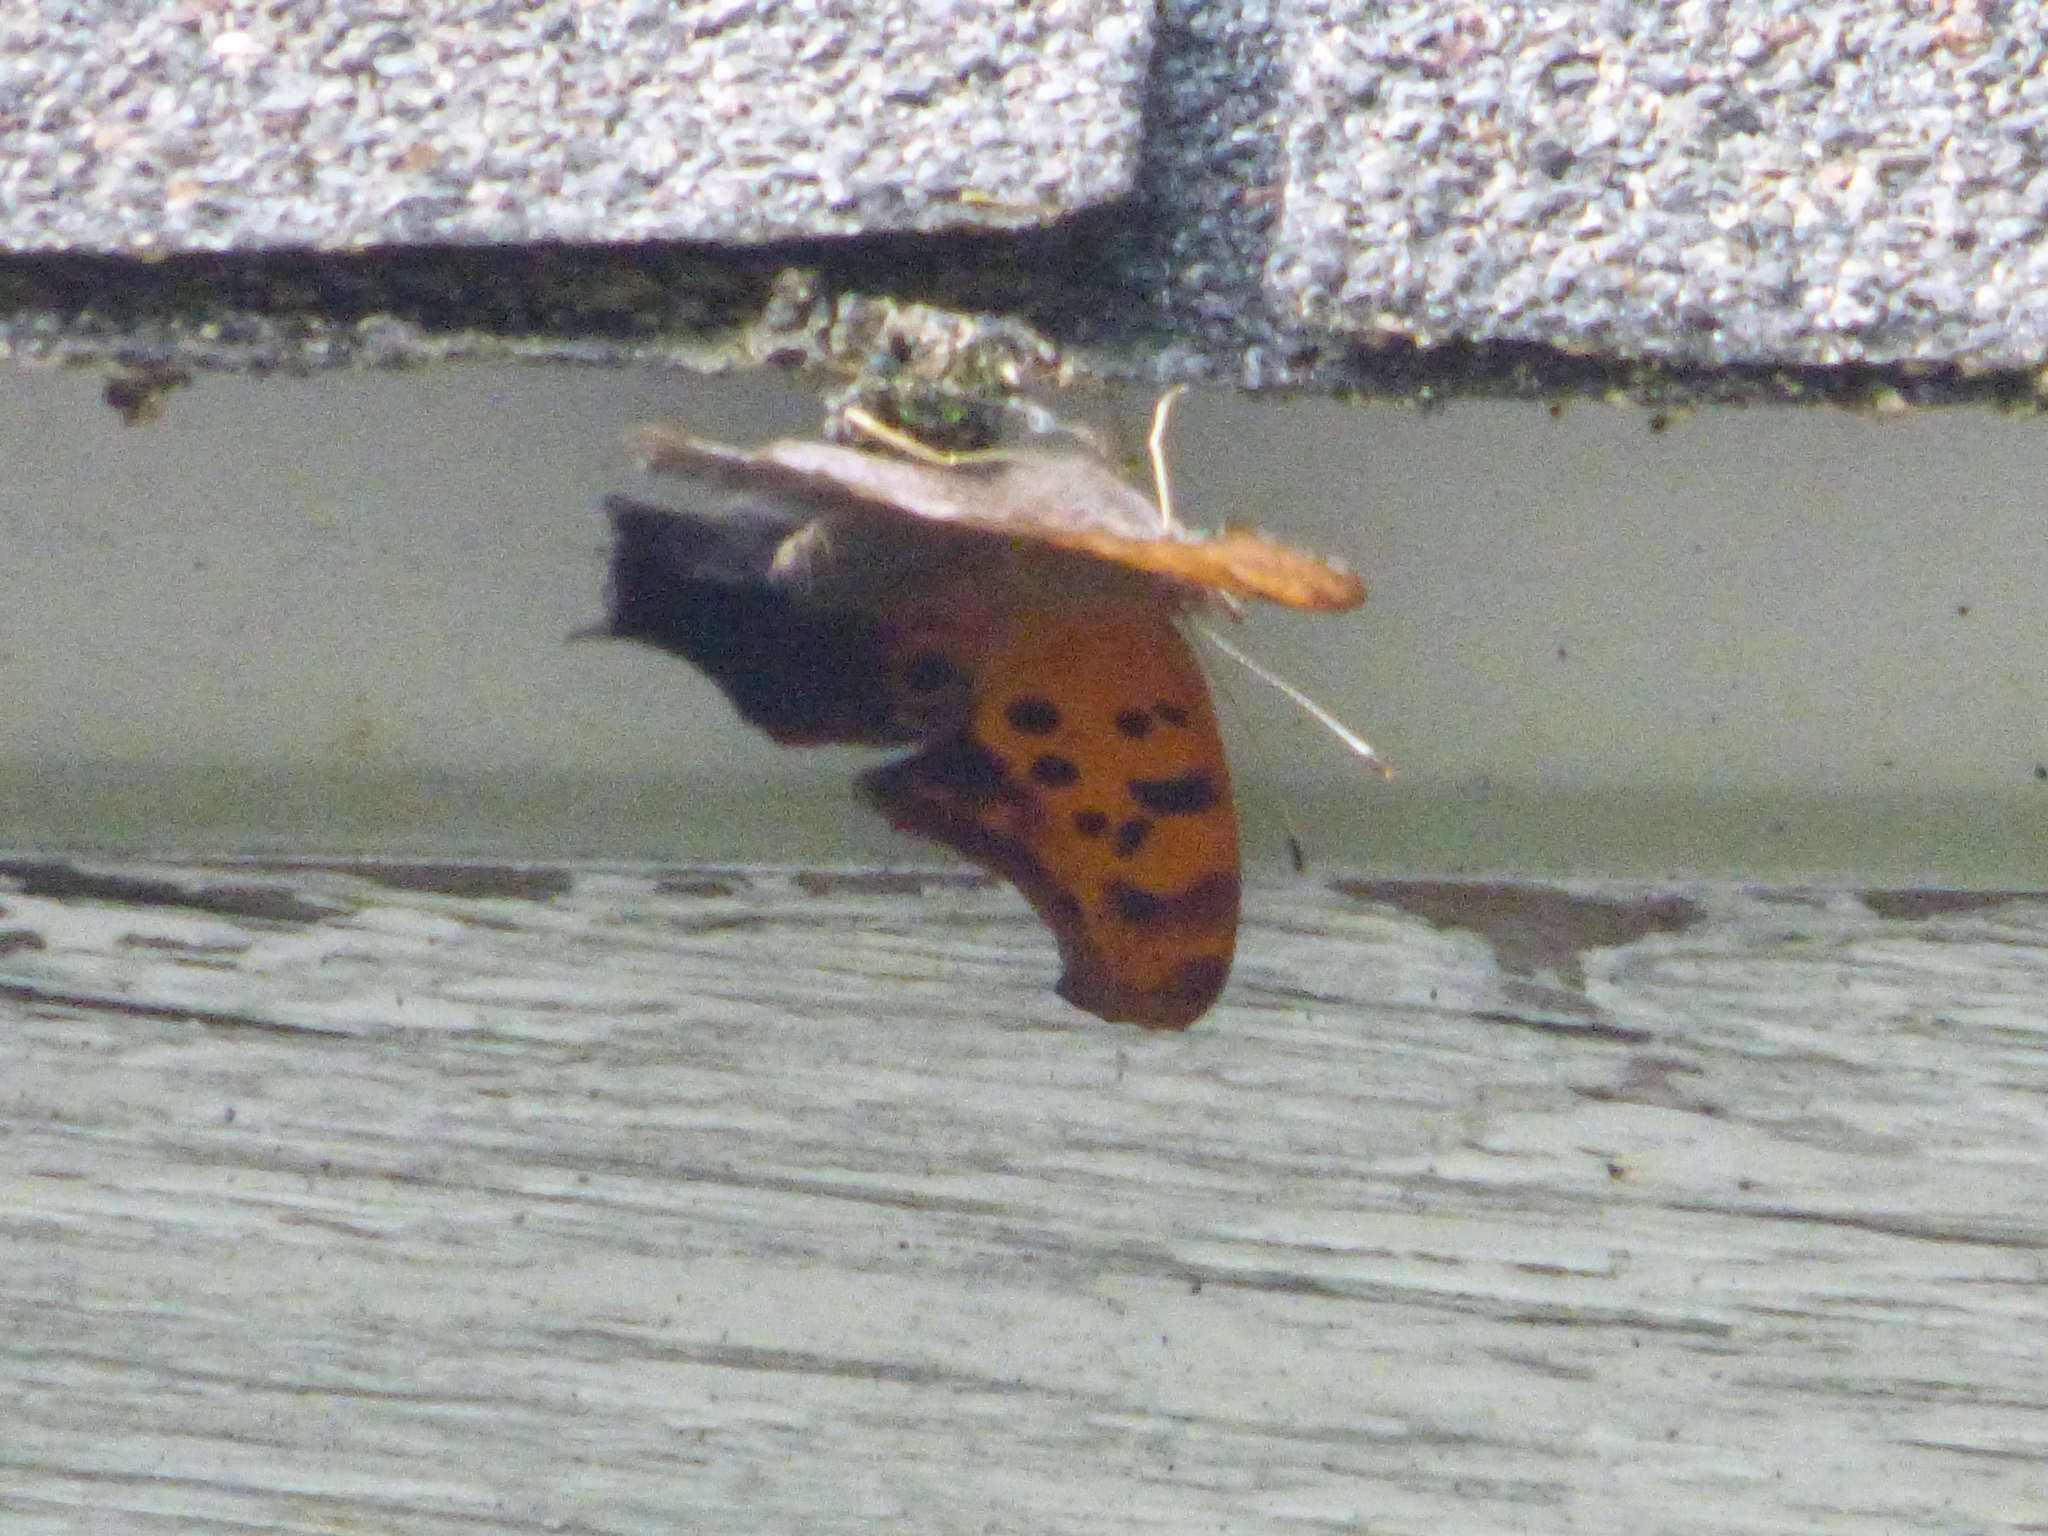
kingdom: Animalia
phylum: Arthropoda
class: Insecta
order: Lepidoptera
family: Nymphalidae
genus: Polygonia
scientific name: Polygonia interrogationis
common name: Question mark
